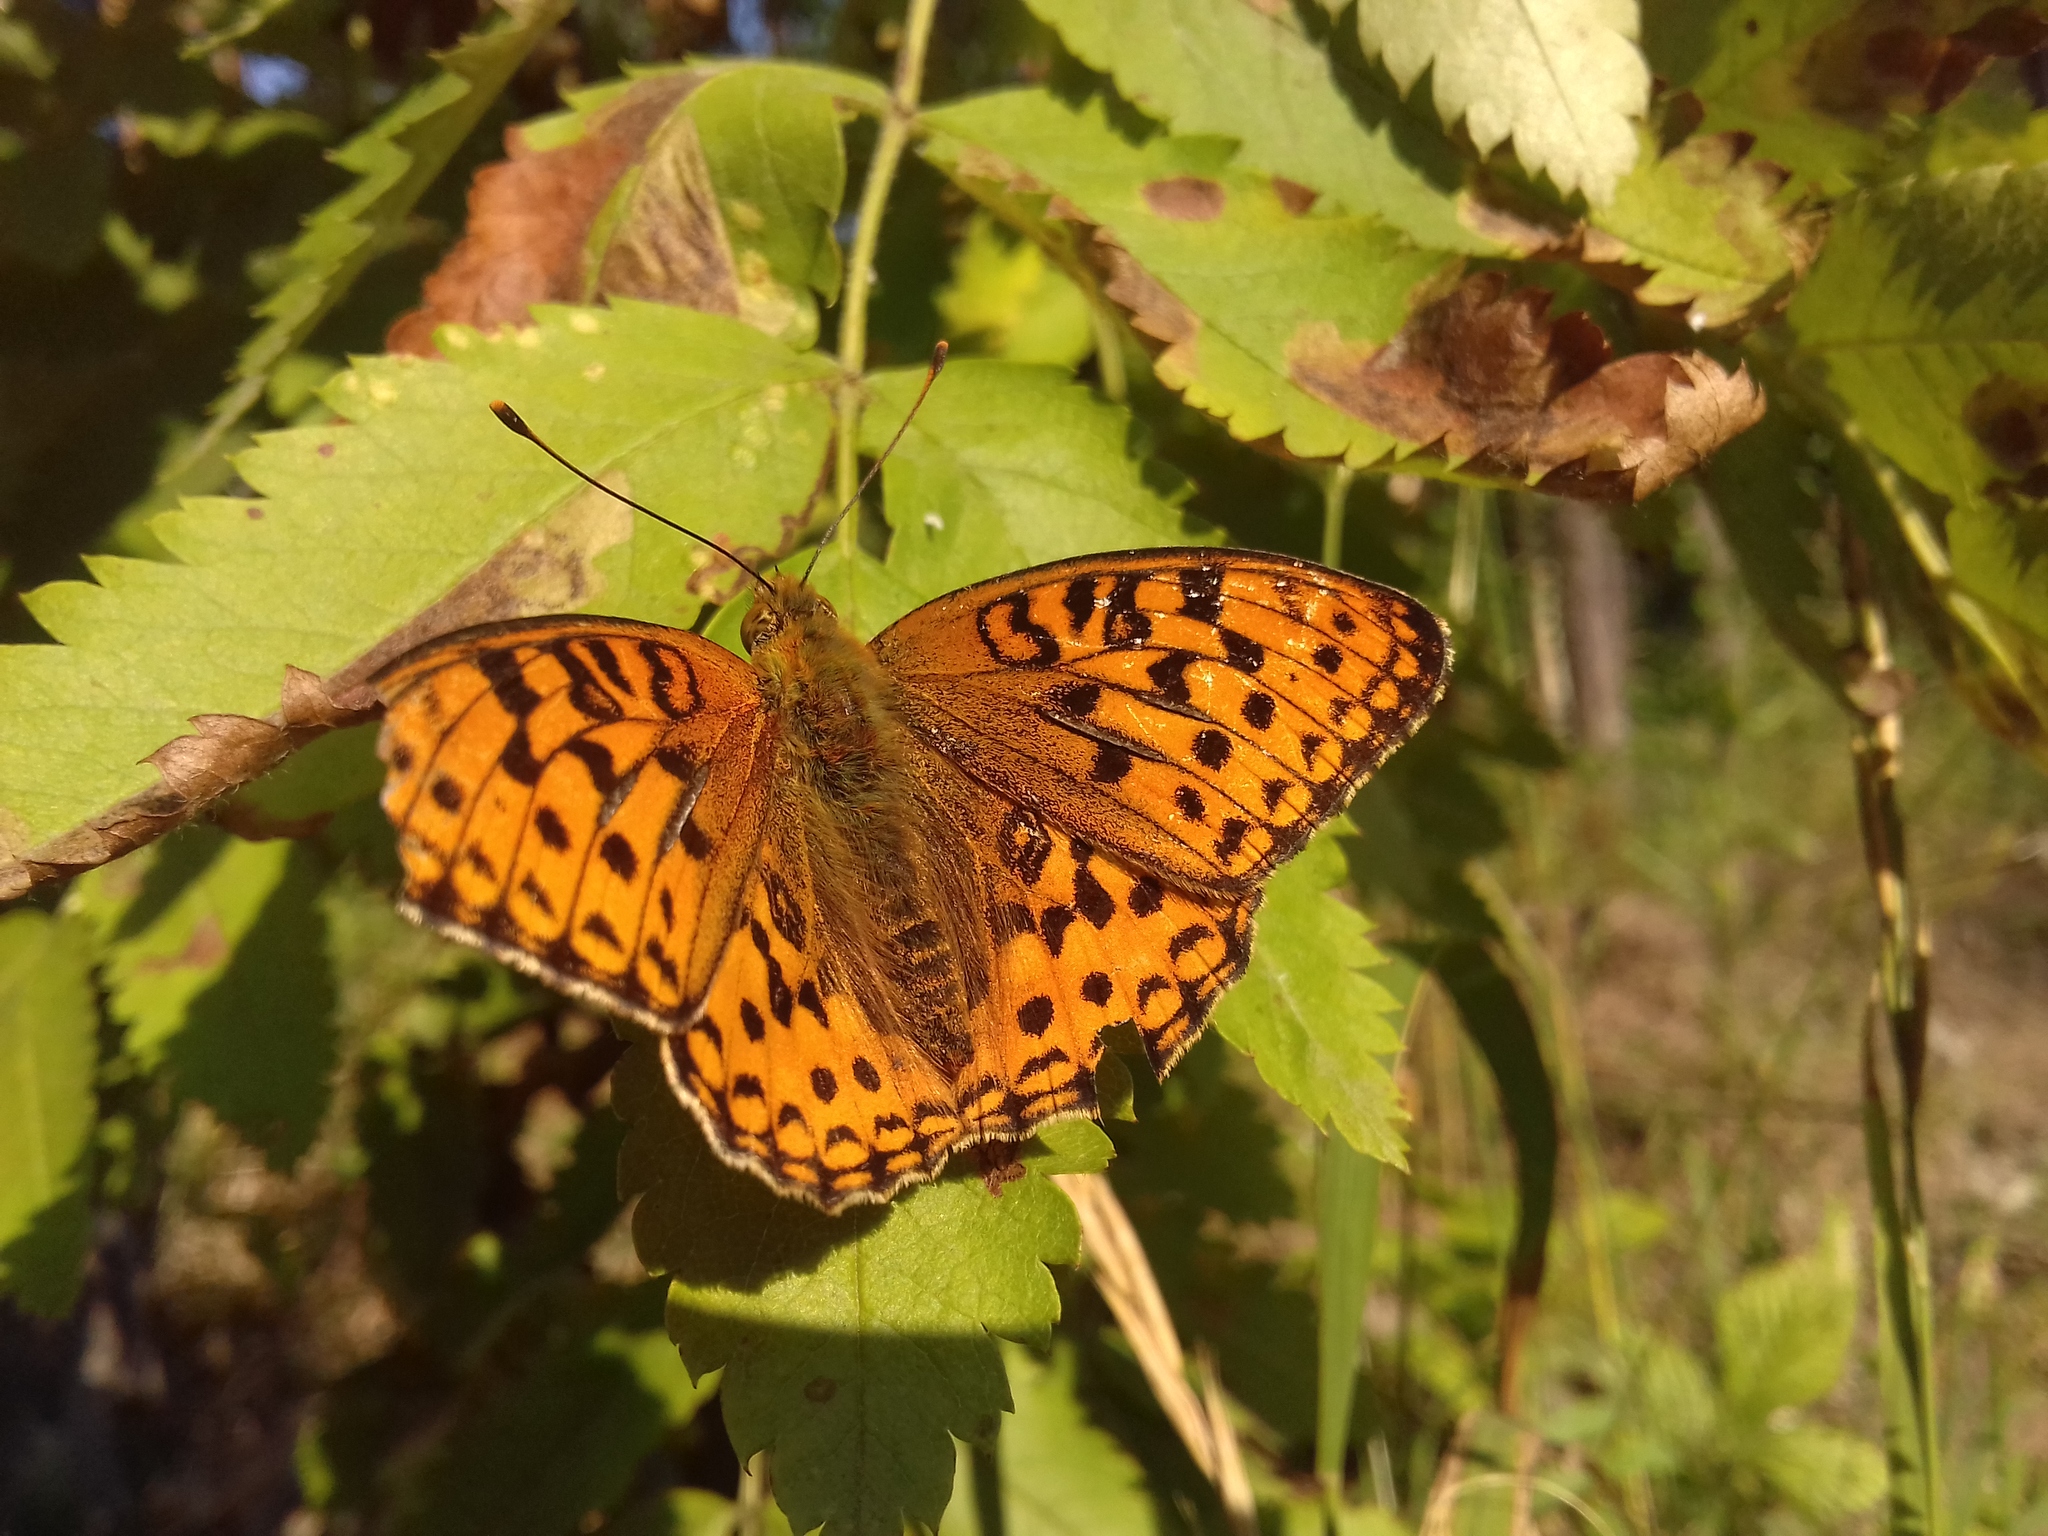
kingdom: Animalia
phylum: Arthropoda
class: Insecta
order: Lepidoptera
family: Nymphalidae
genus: Fabriciana
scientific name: Fabriciana adippe
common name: High brown fritillary
